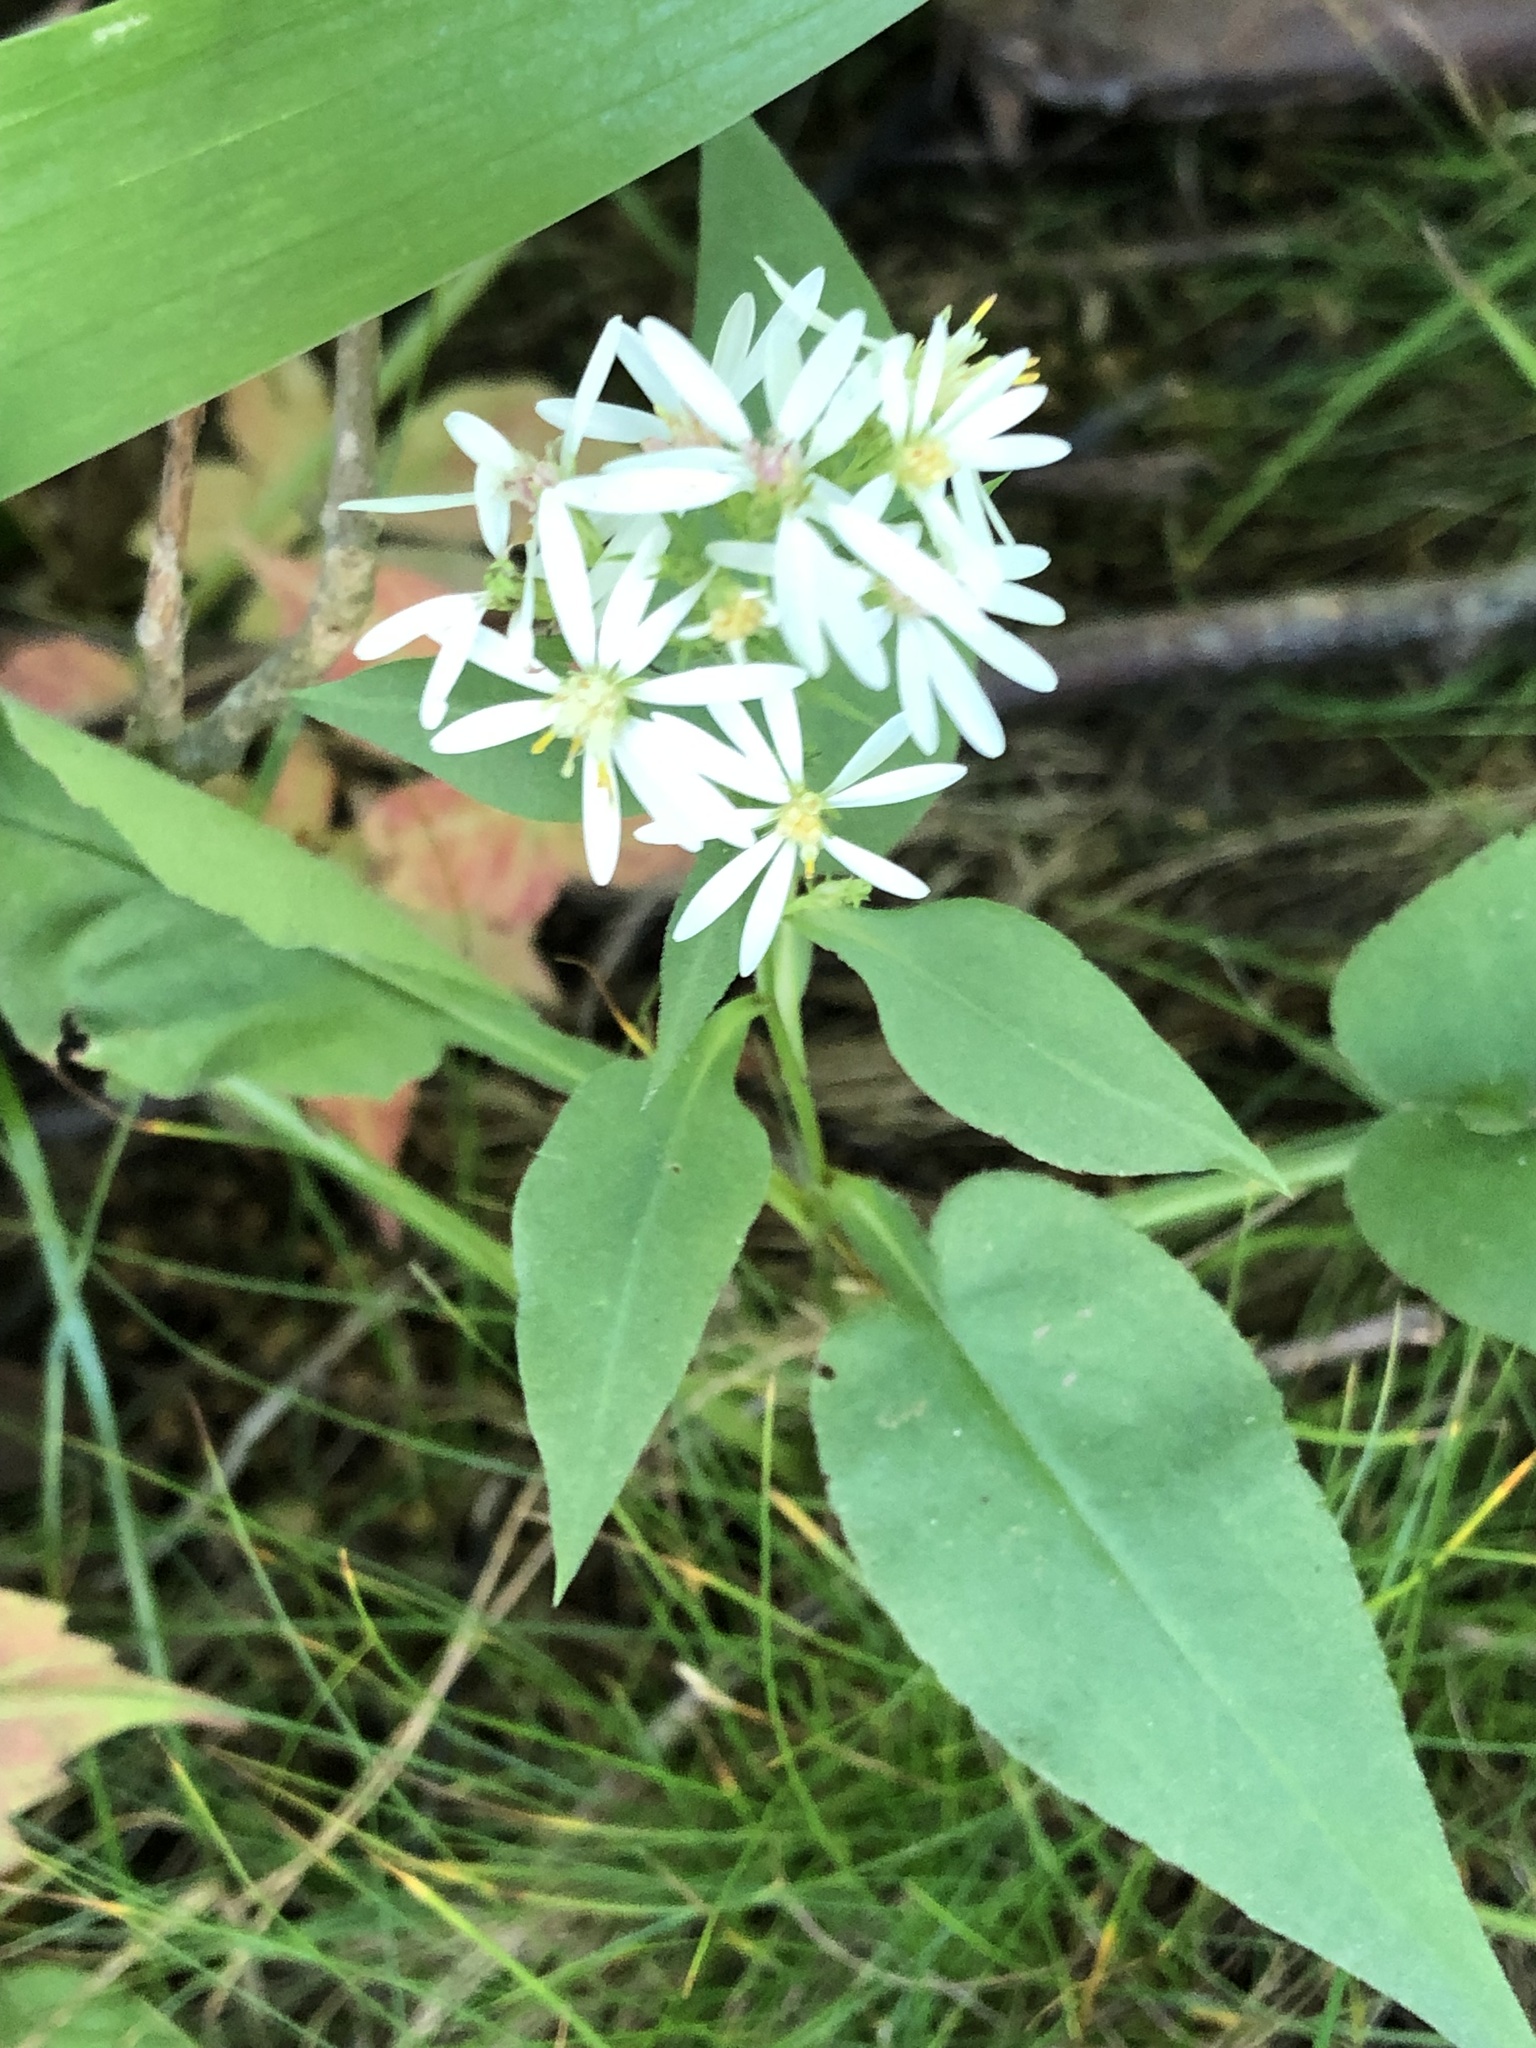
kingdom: Plantae
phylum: Tracheophyta
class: Magnoliopsida
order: Asterales
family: Asteraceae
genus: Symphyotrichum
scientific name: Symphyotrichum urophyllum
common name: Arrow-leaved aster
